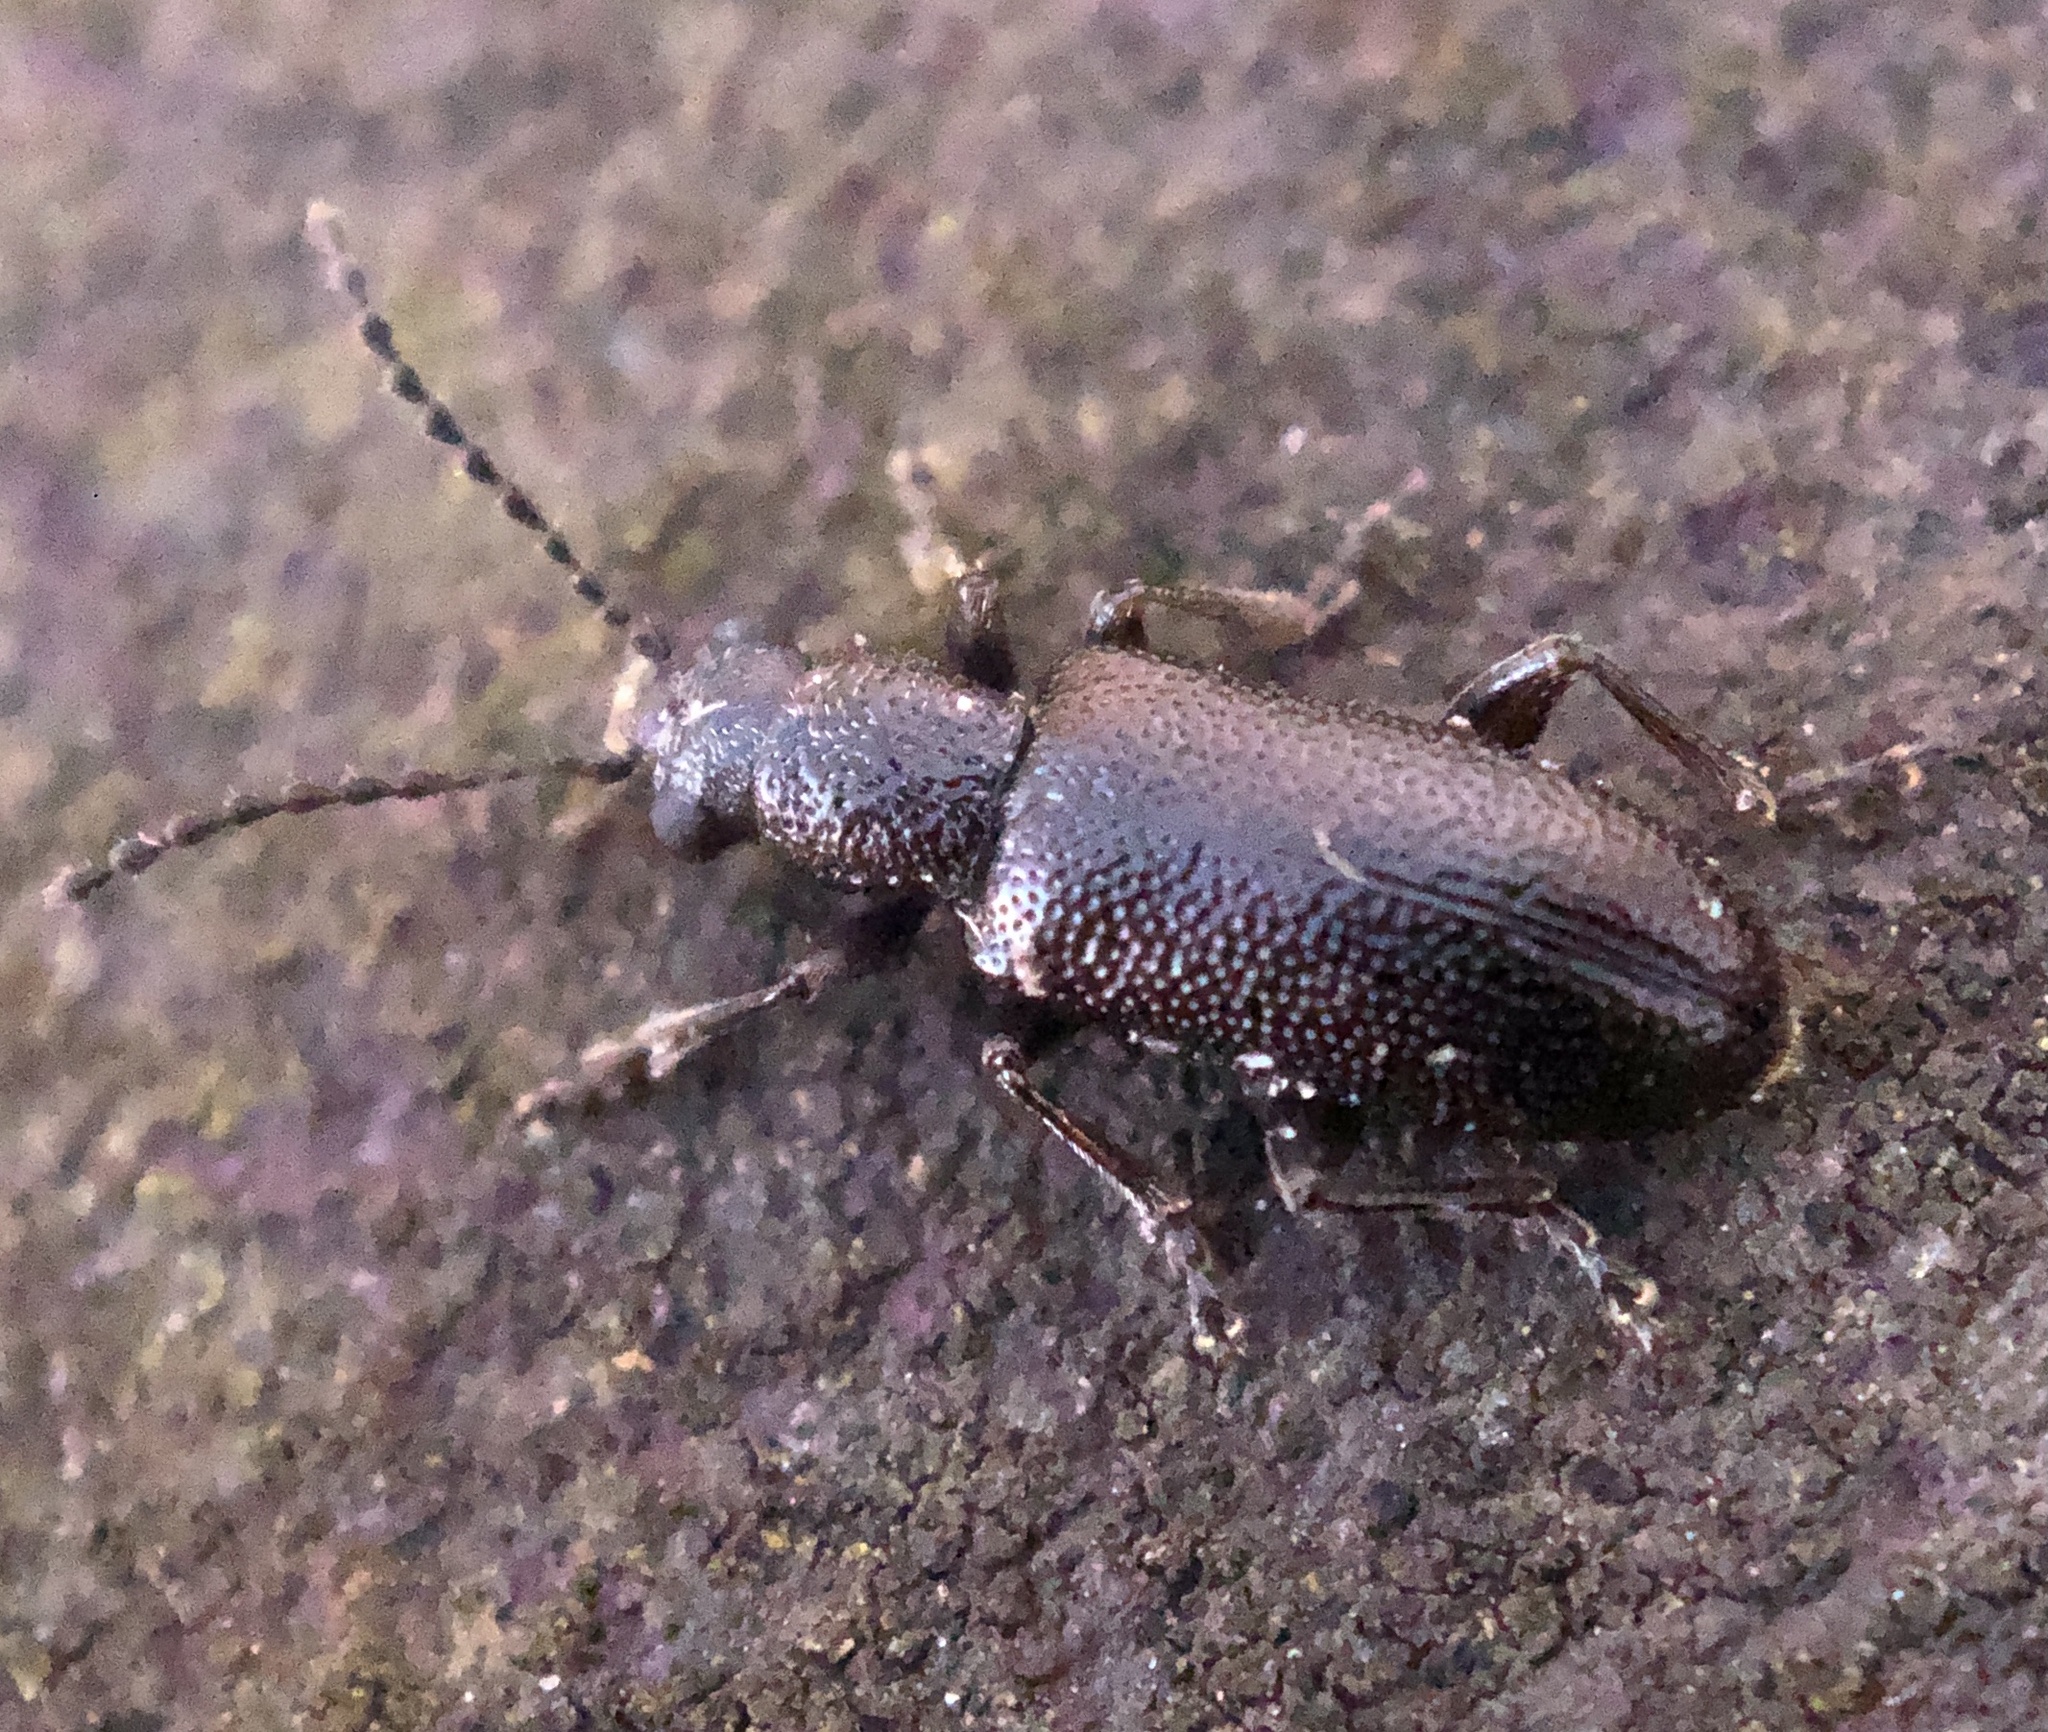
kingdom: Animalia
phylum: Arthropoda
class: Insecta
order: Coleoptera
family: Orsodacnidae
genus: Orsodacne
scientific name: Orsodacne atra
